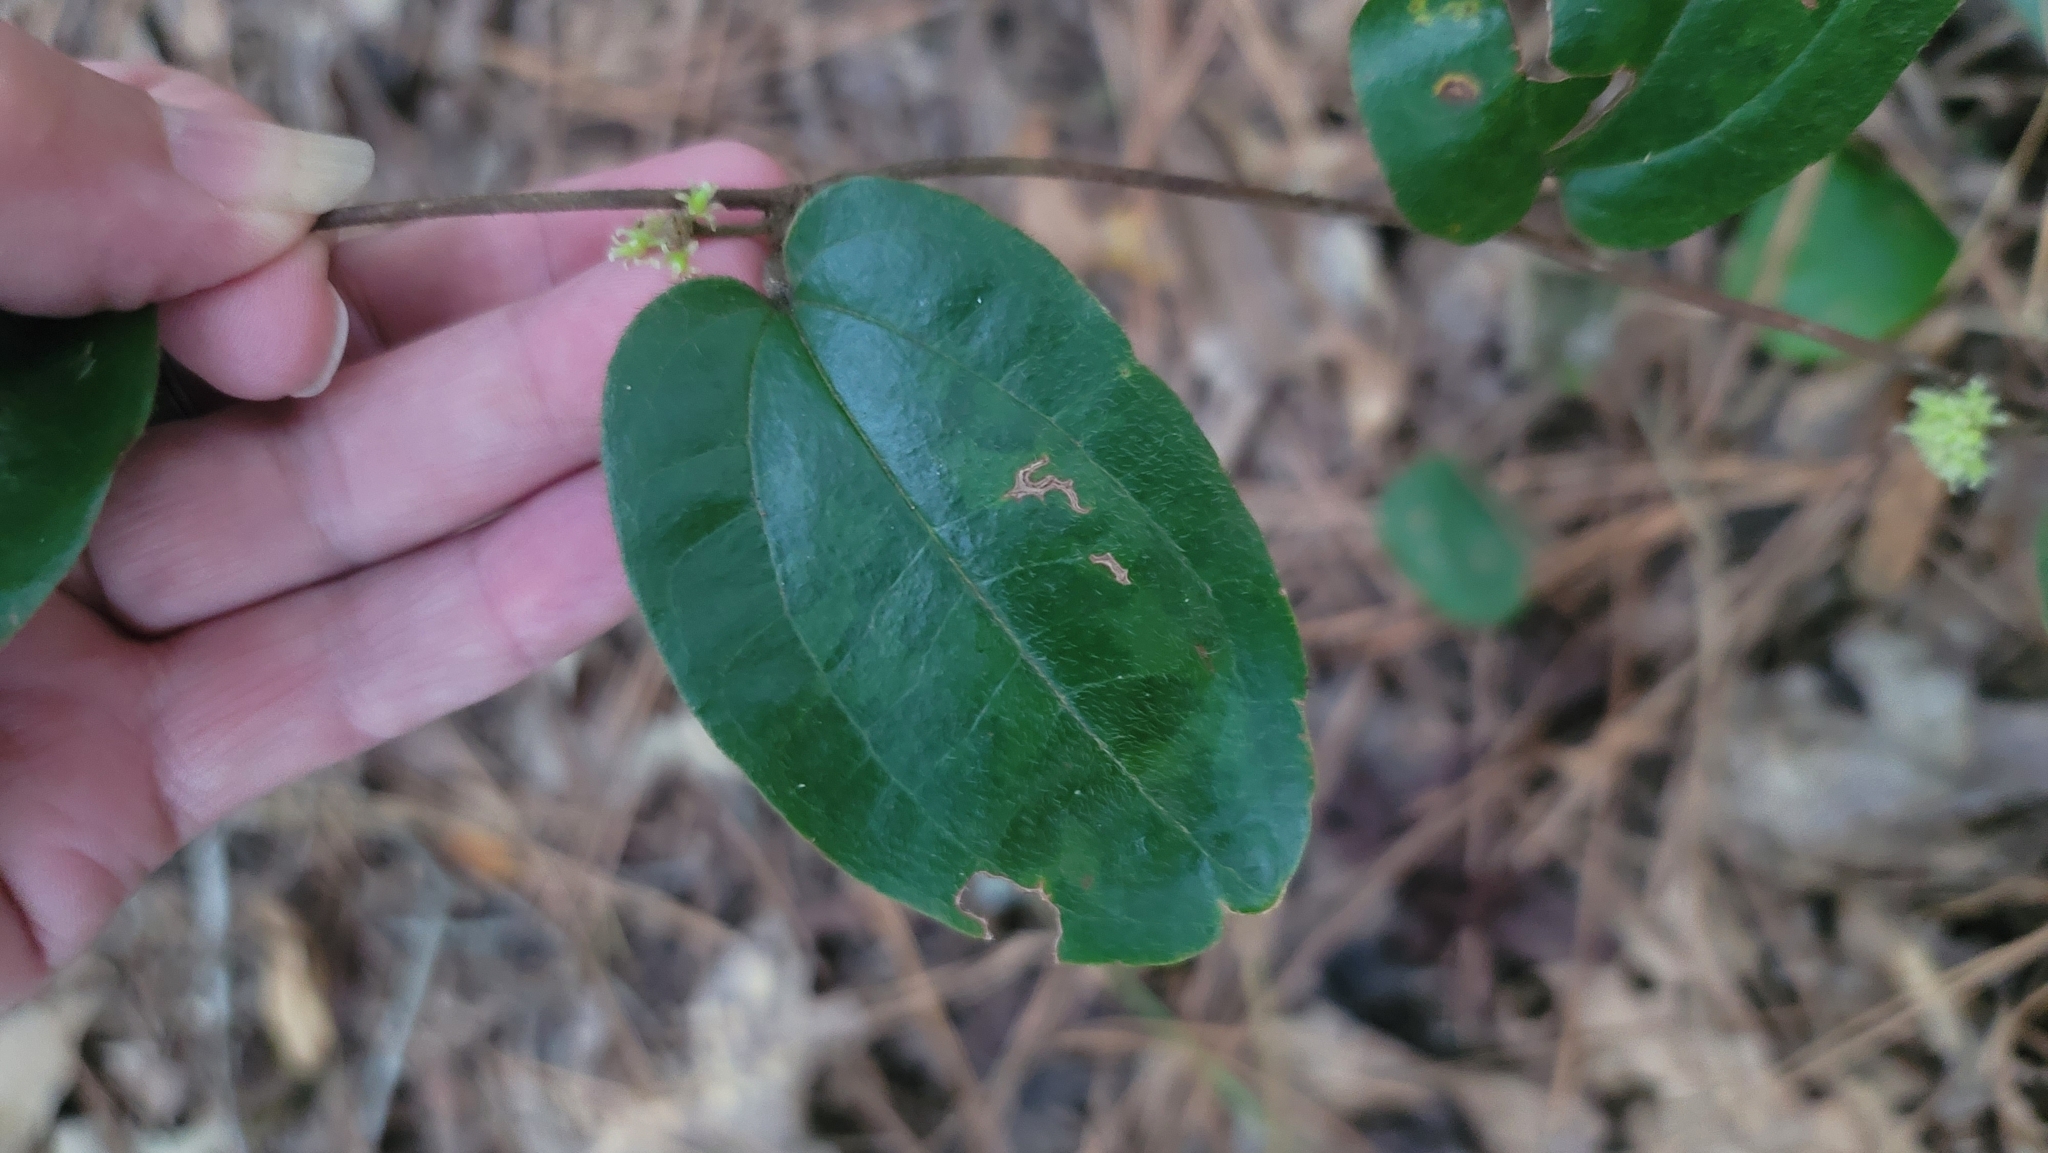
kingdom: Plantae
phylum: Tracheophyta
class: Liliopsida
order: Liliales
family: Smilacaceae
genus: Smilax
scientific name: Smilax pumila
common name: Sarsaparilla-vine
